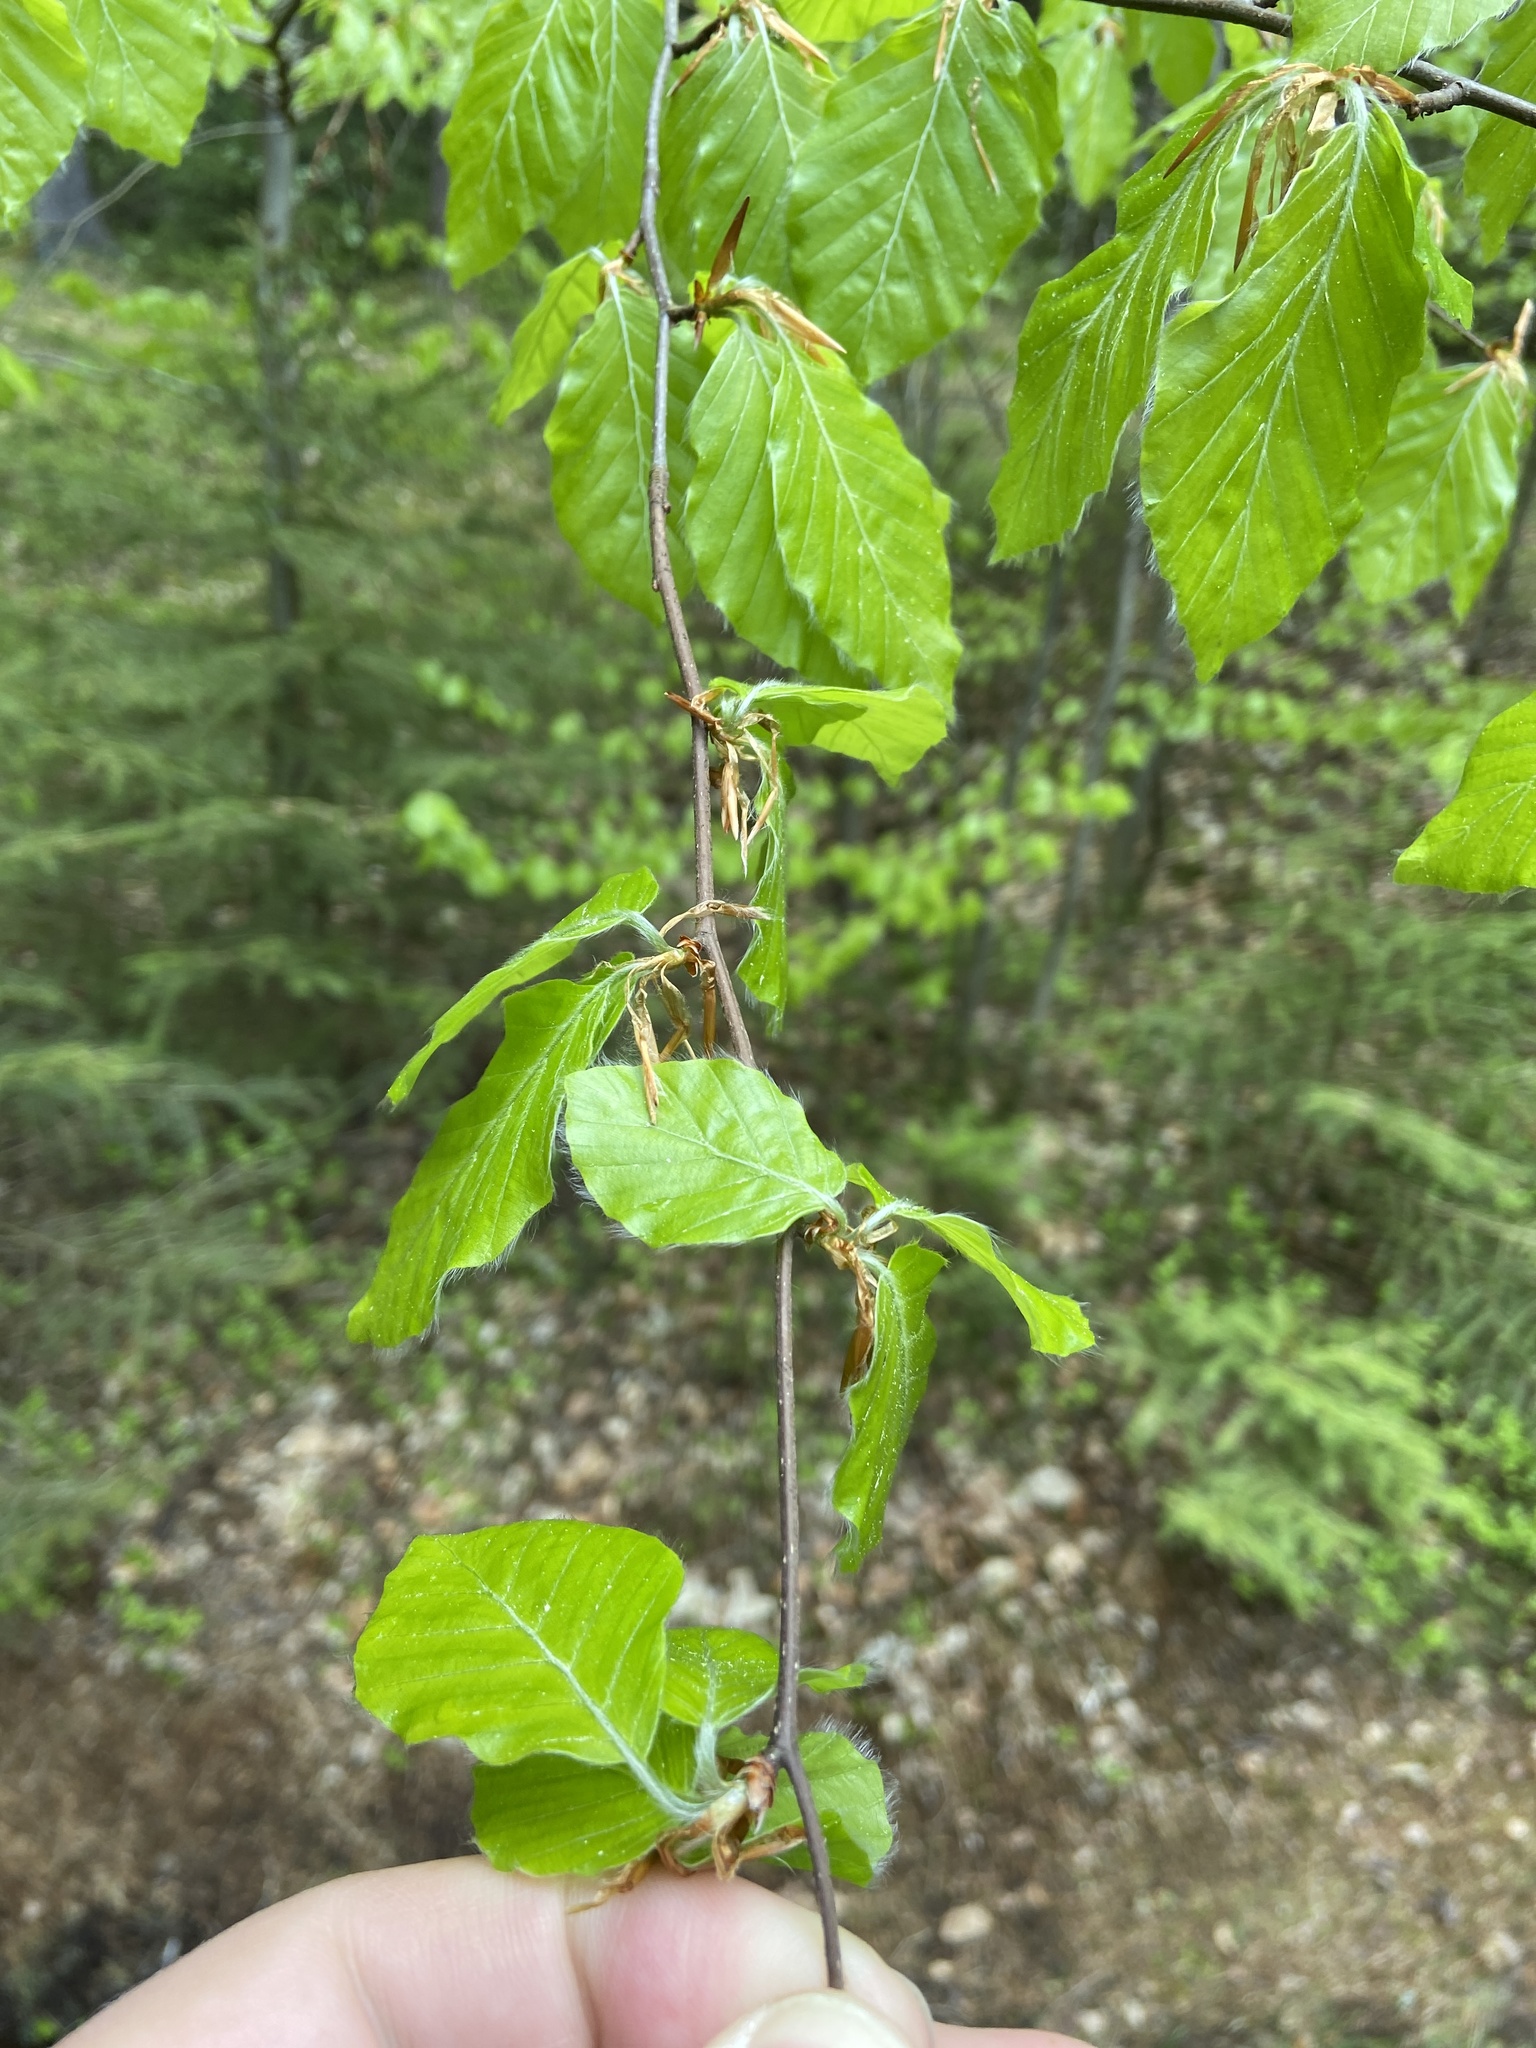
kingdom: Plantae
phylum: Tracheophyta
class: Magnoliopsida
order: Fagales
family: Fagaceae
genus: Fagus
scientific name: Fagus sylvatica
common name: Beech
